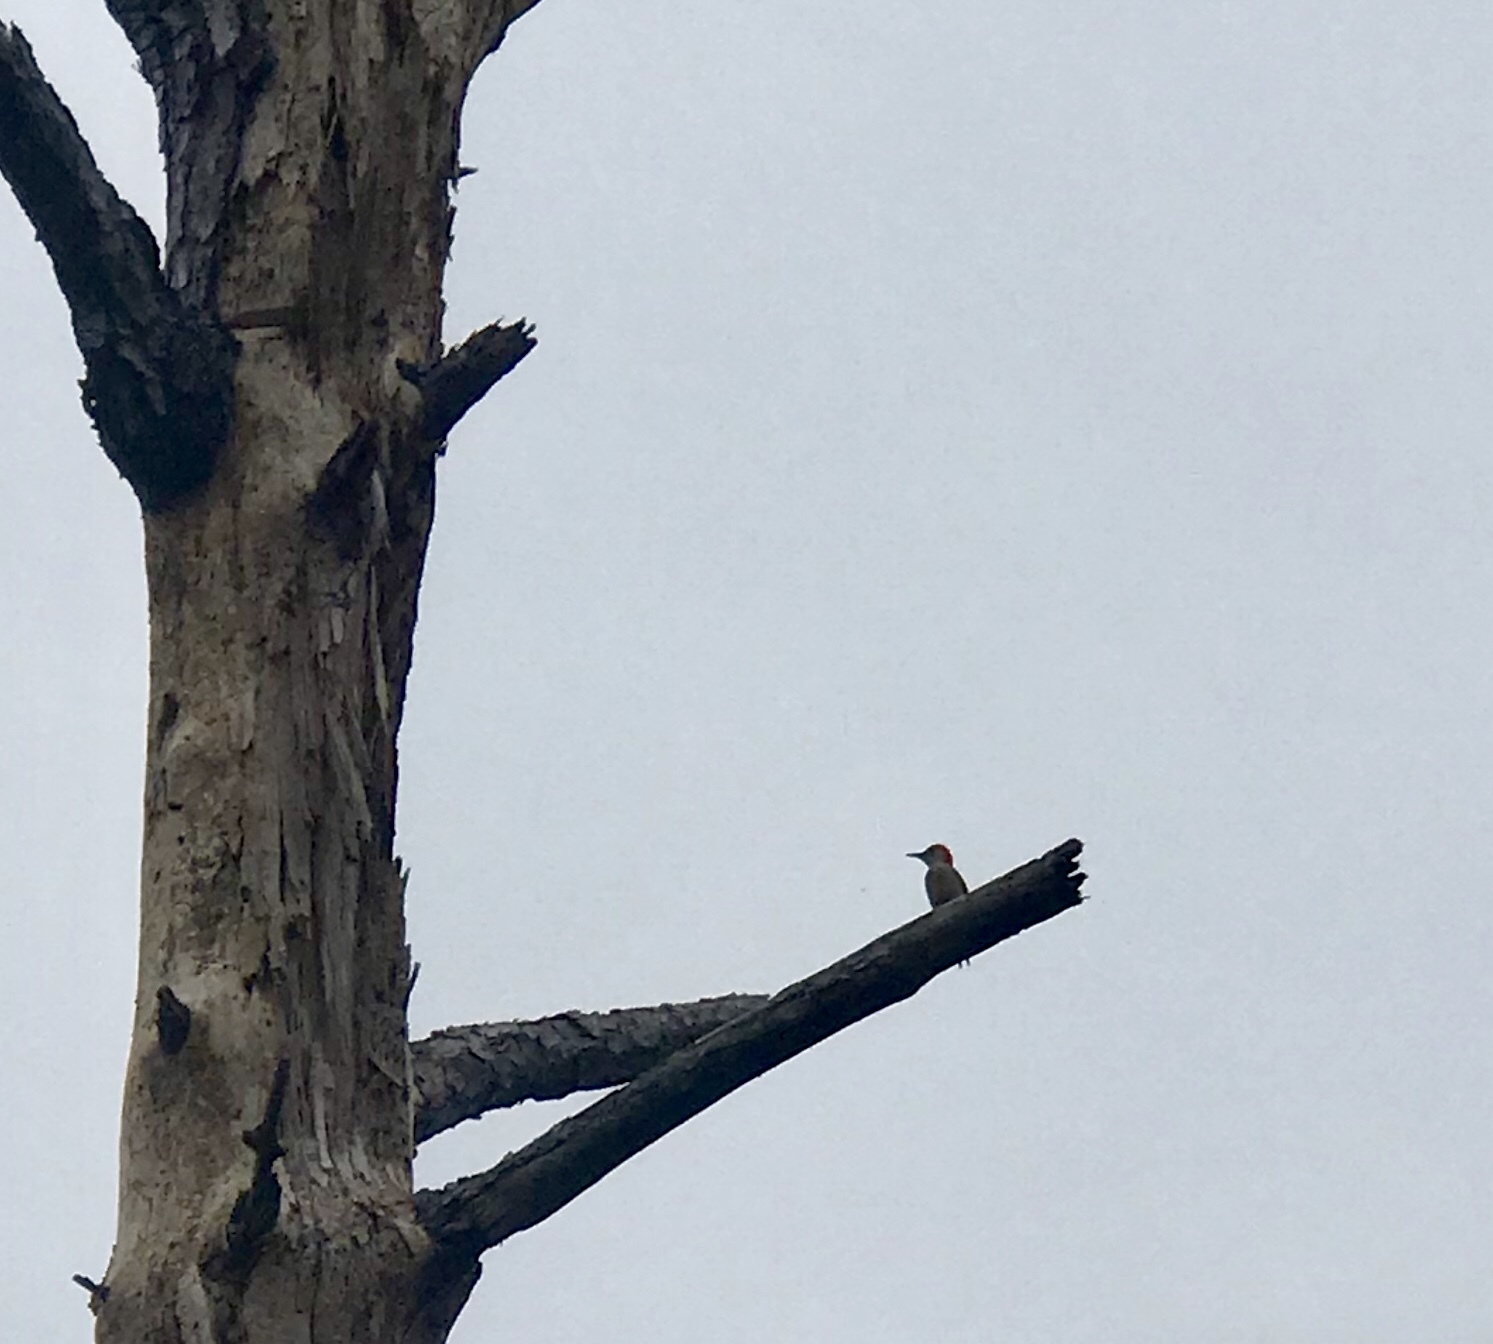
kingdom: Animalia
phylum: Chordata
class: Aves
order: Piciformes
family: Picidae
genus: Melanerpes
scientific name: Melanerpes carolinus
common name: Red-bellied woodpecker
